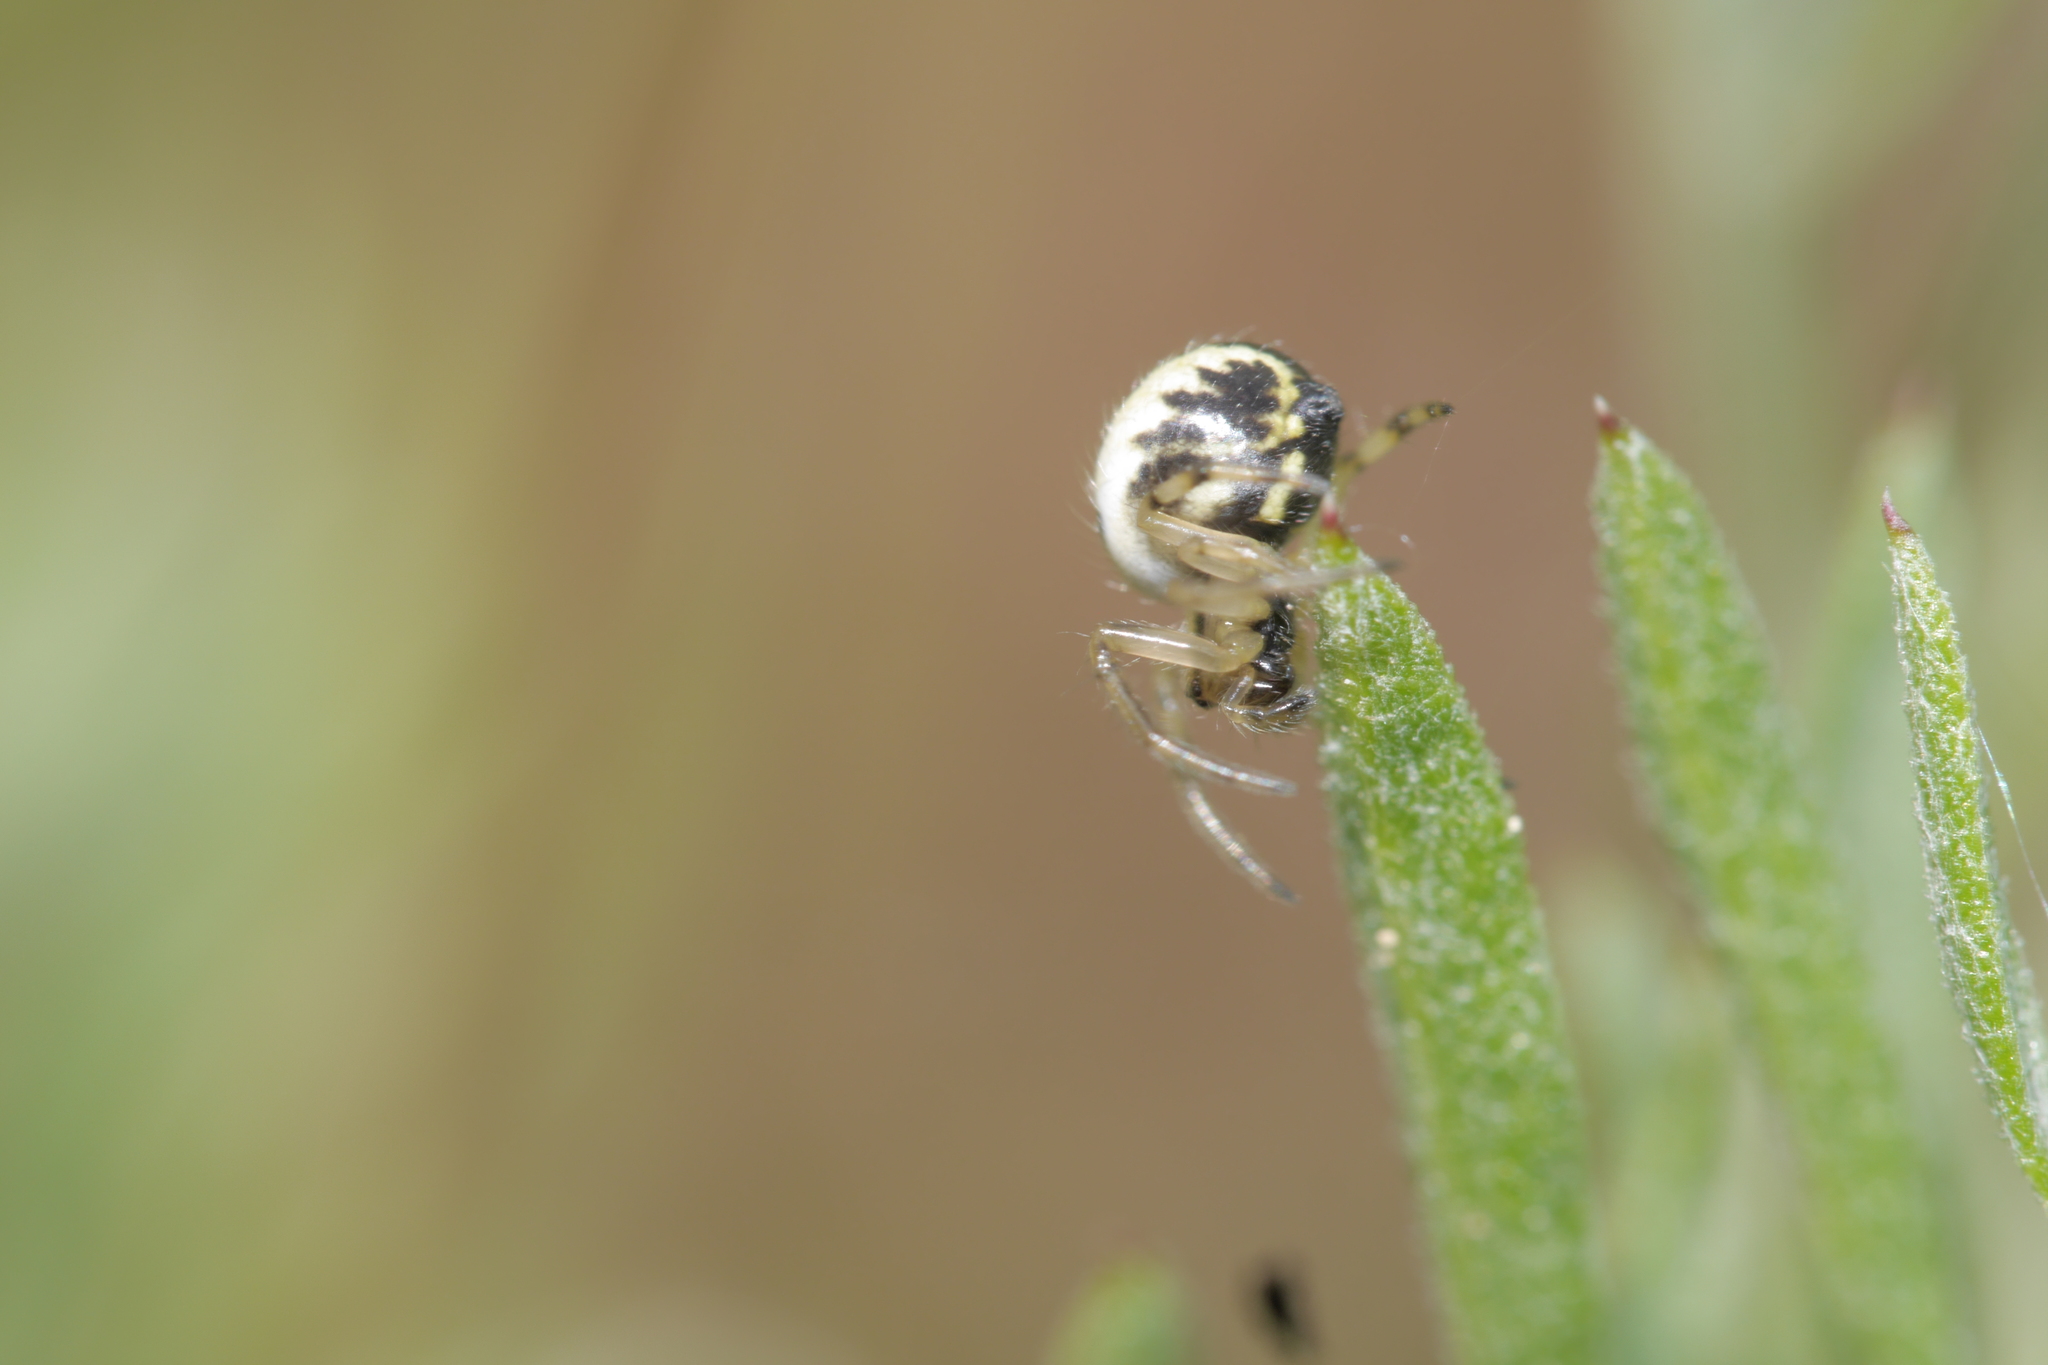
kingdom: Animalia
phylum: Arthropoda
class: Arachnida
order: Araneae
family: Araneidae
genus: Neoscona
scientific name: Neoscona adianta
